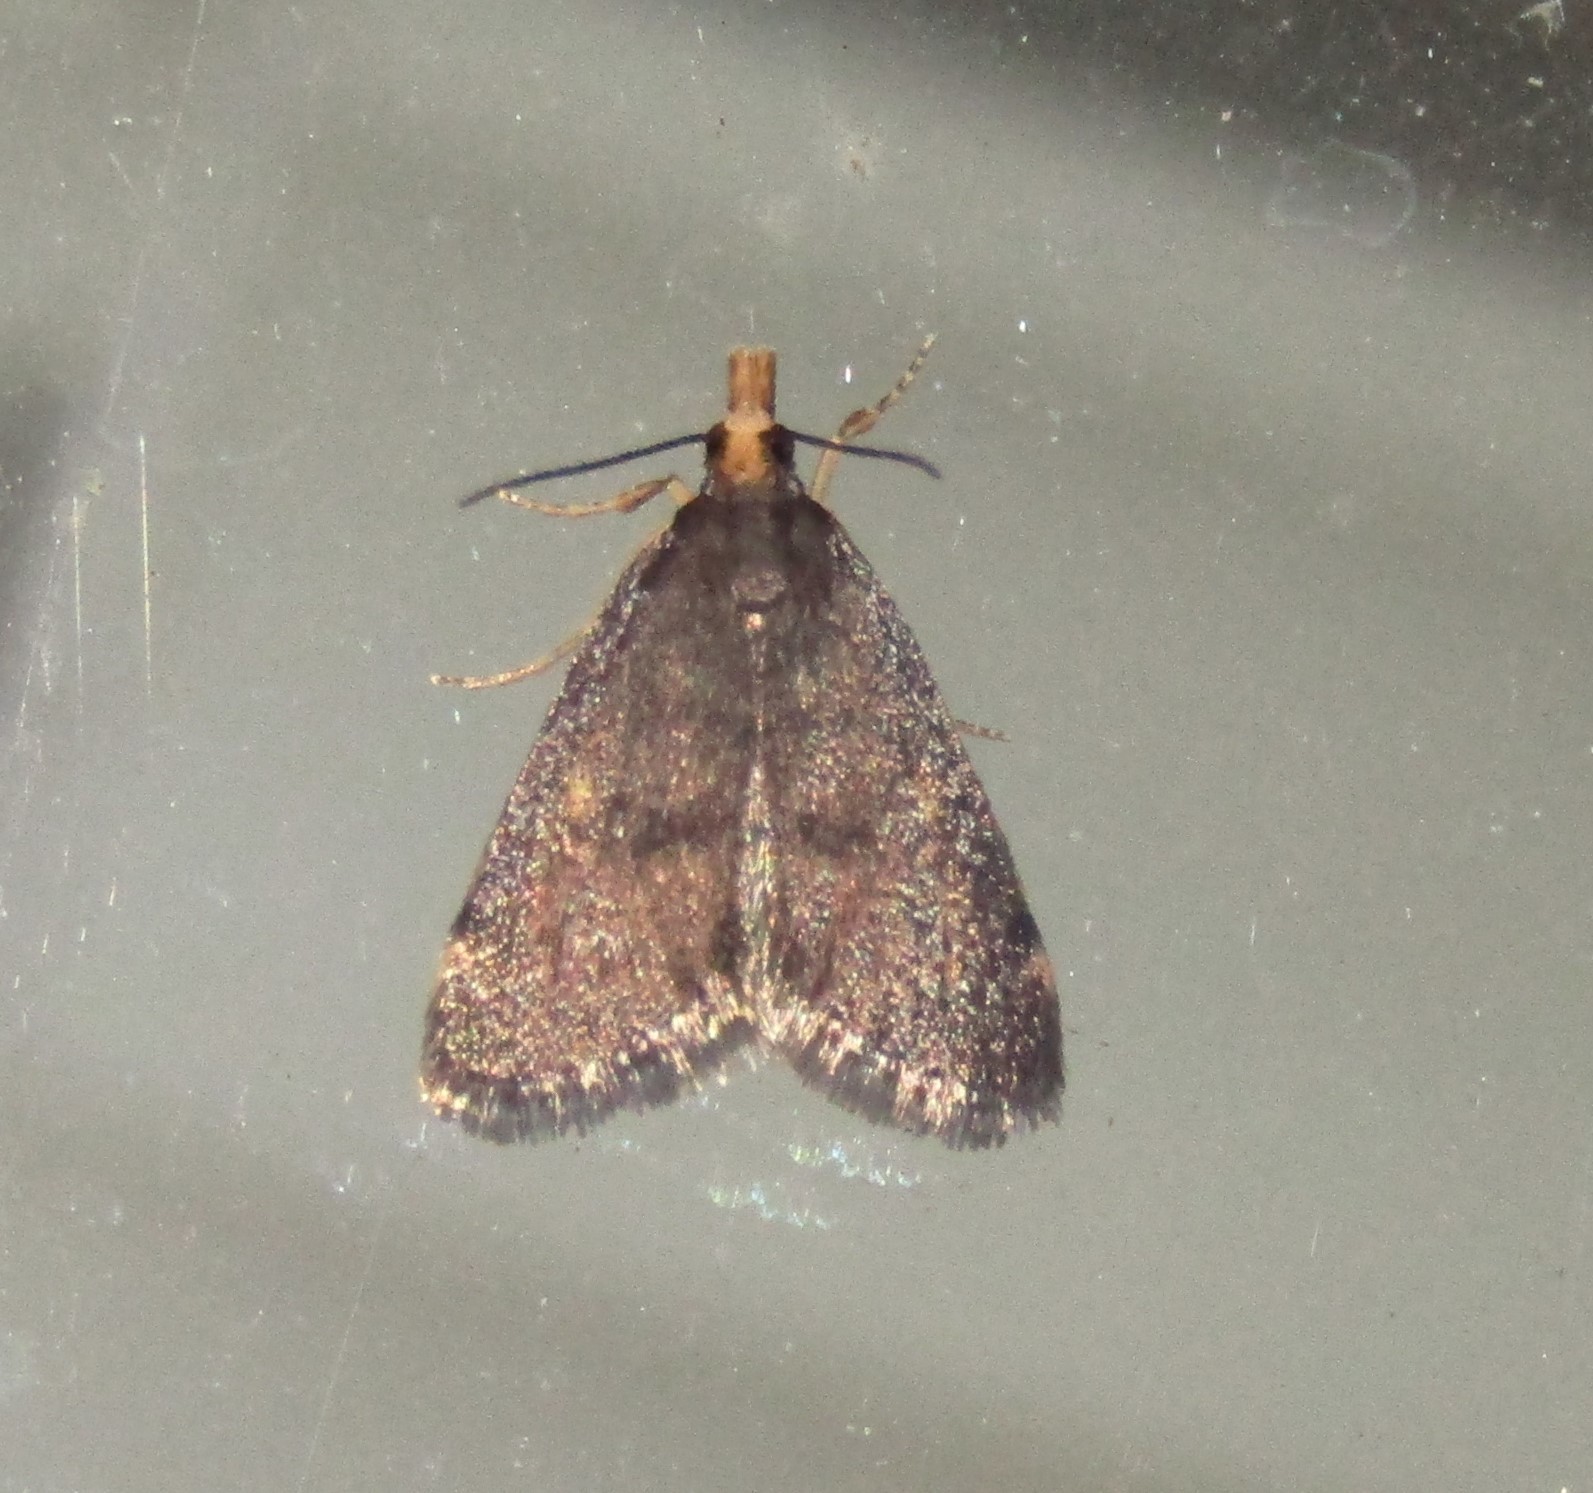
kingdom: Animalia
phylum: Arthropoda
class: Insecta
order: Lepidoptera
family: Crambidae
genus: Pyrausta
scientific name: Pyrausta merrickalis
